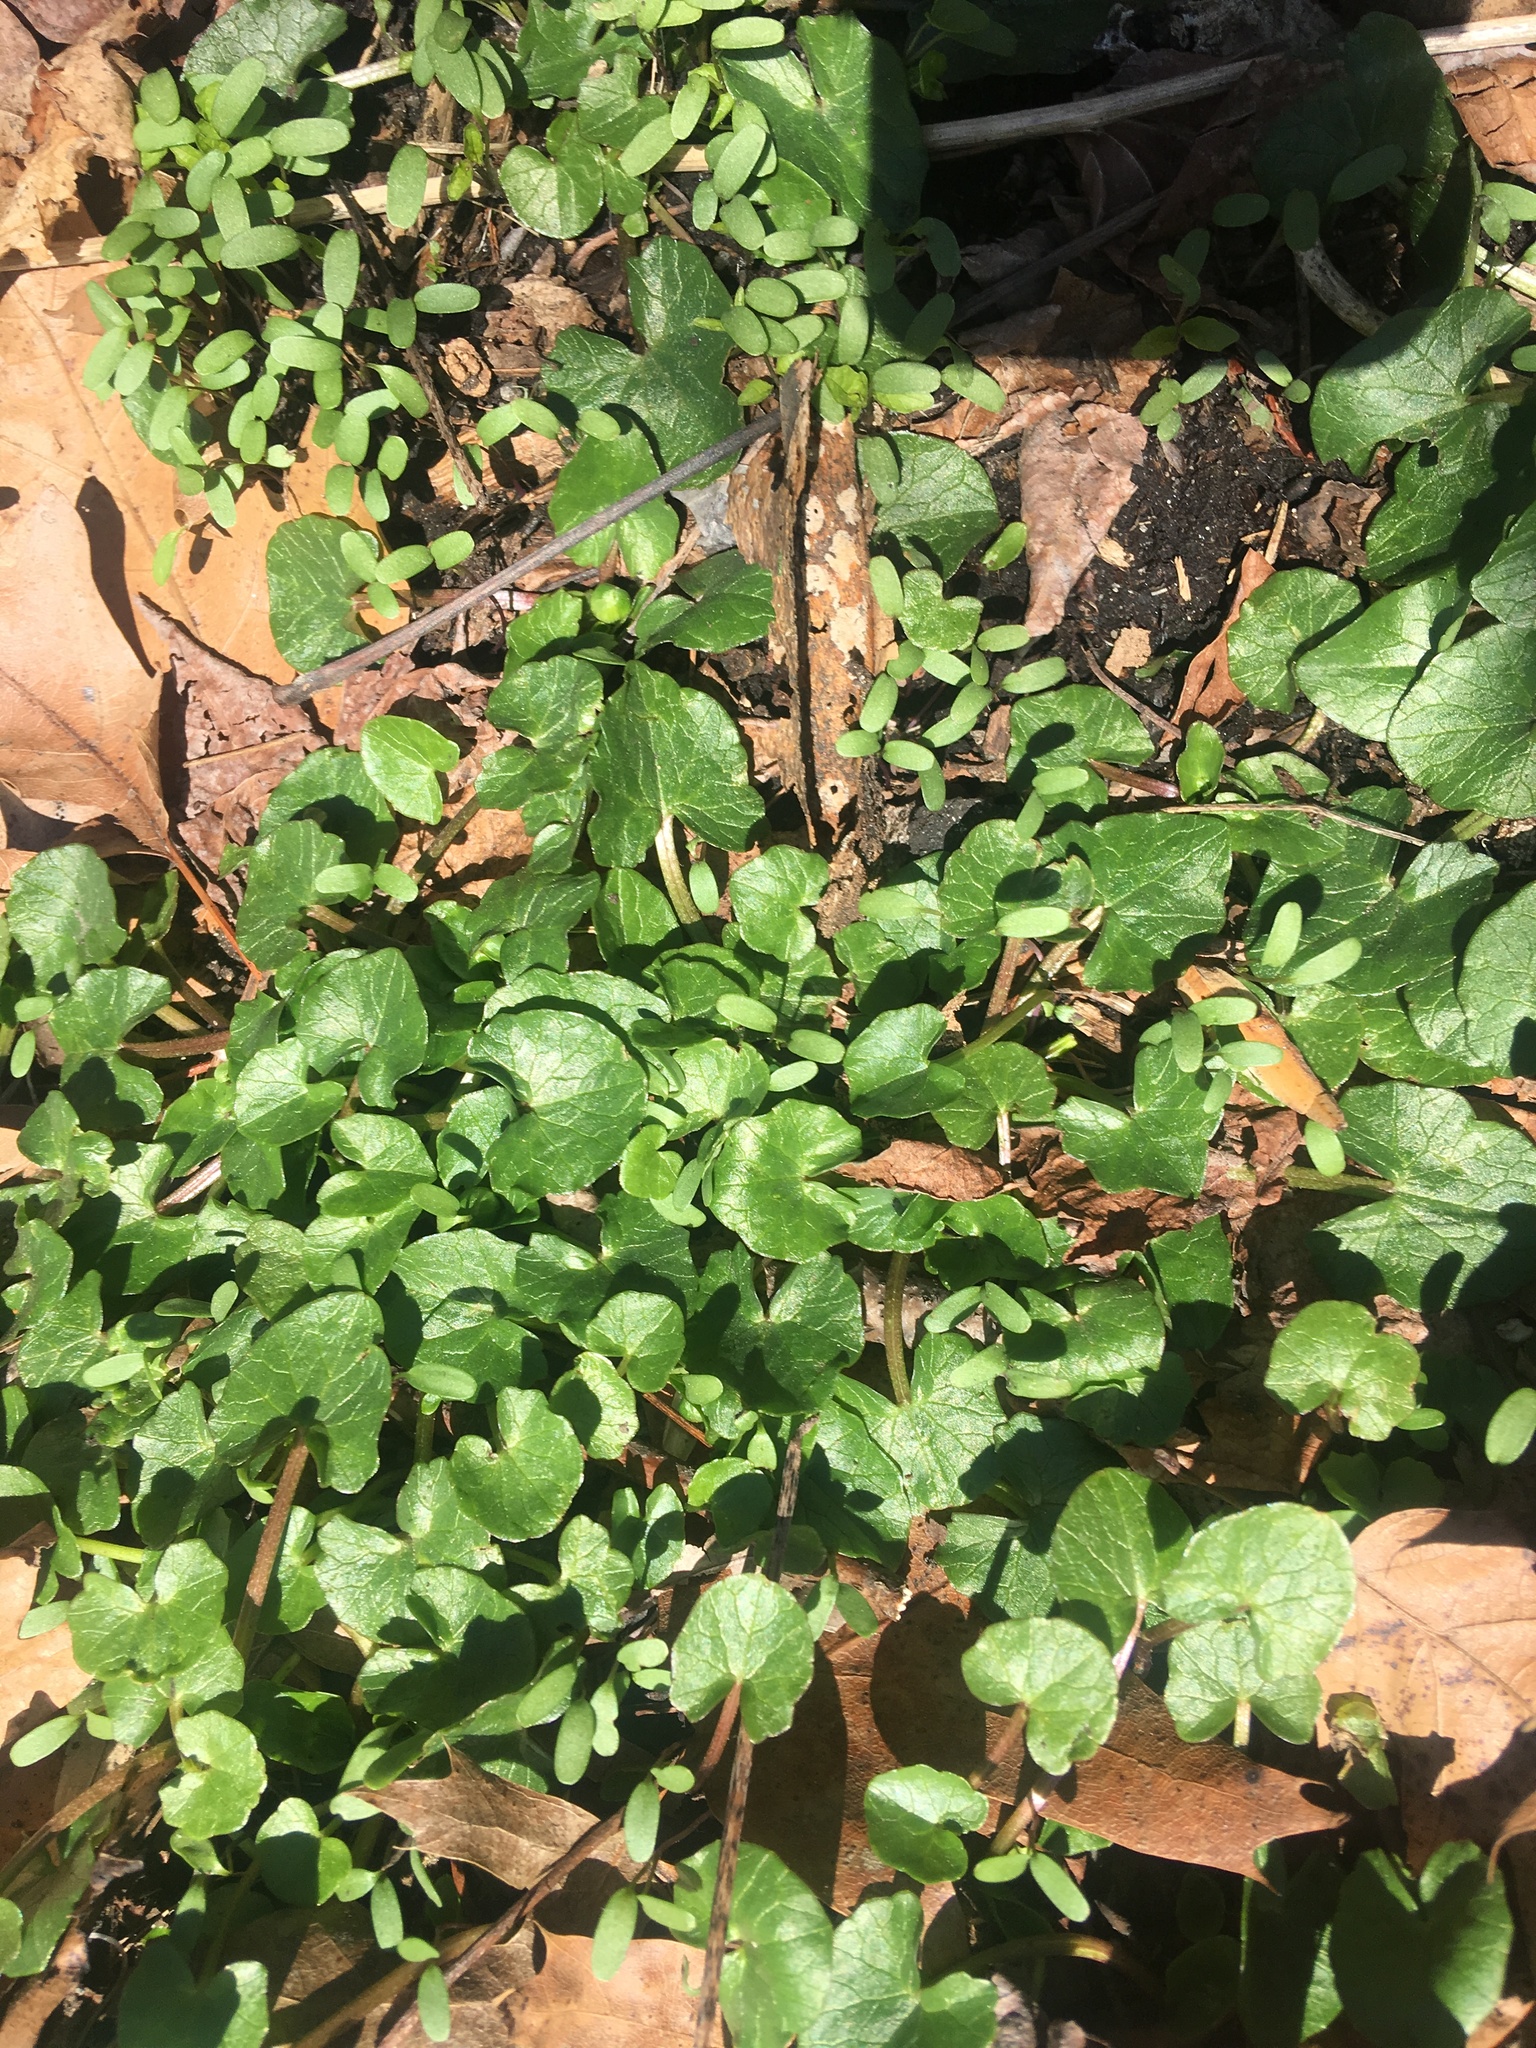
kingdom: Plantae
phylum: Tracheophyta
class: Magnoliopsida
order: Ranunculales
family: Ranunculaceae
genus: Ficaria
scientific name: Ficaria verna
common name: Lesser celandine
